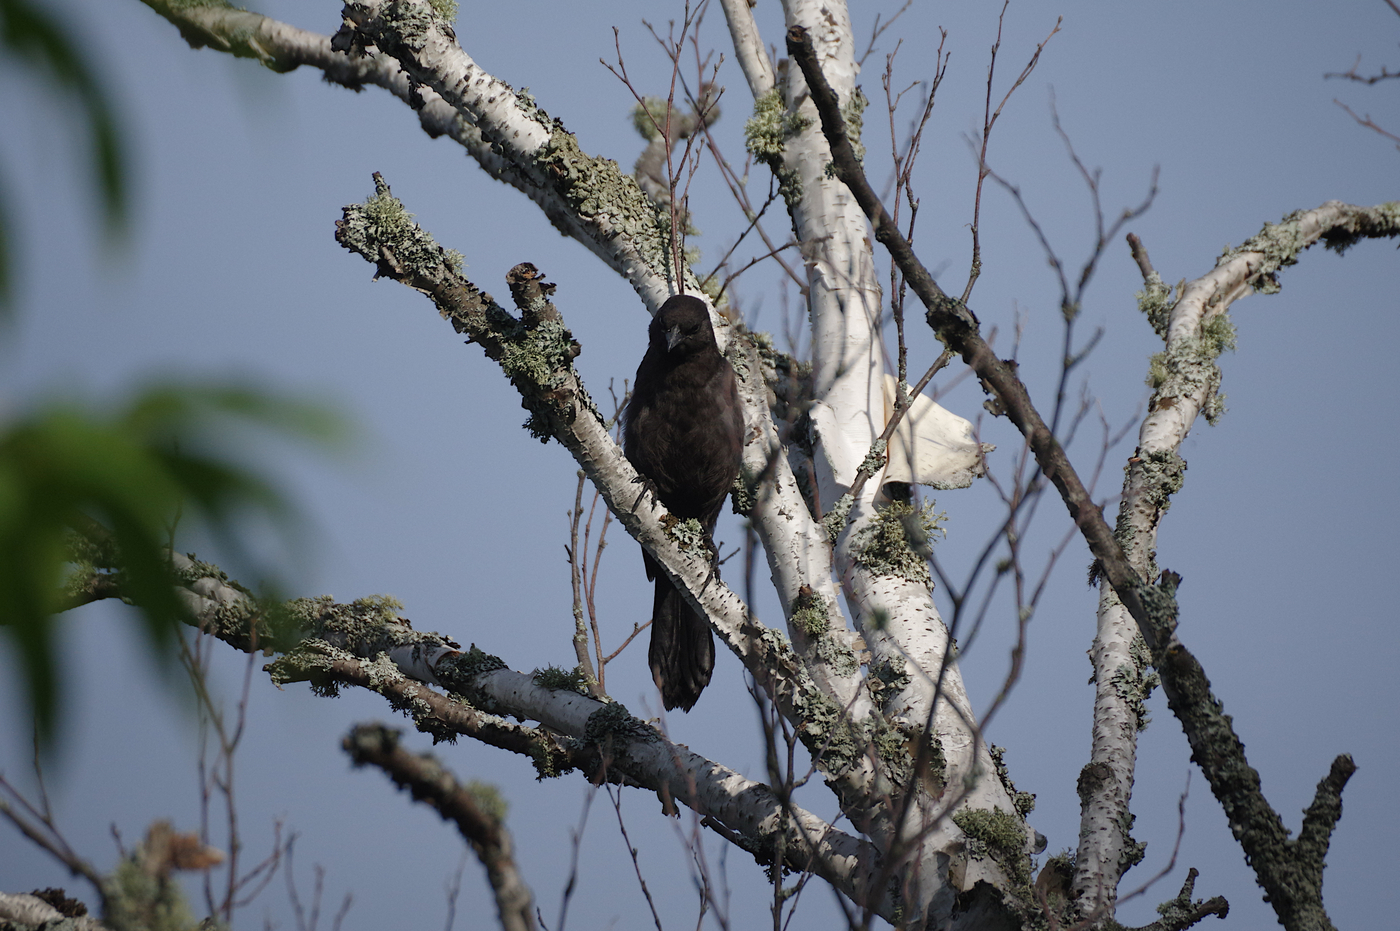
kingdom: Animalia
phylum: Chordata
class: Aves
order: Passeriformes
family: Icteridae
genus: Quiscalus
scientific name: Quiscalus quiscula
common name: Common grackle
